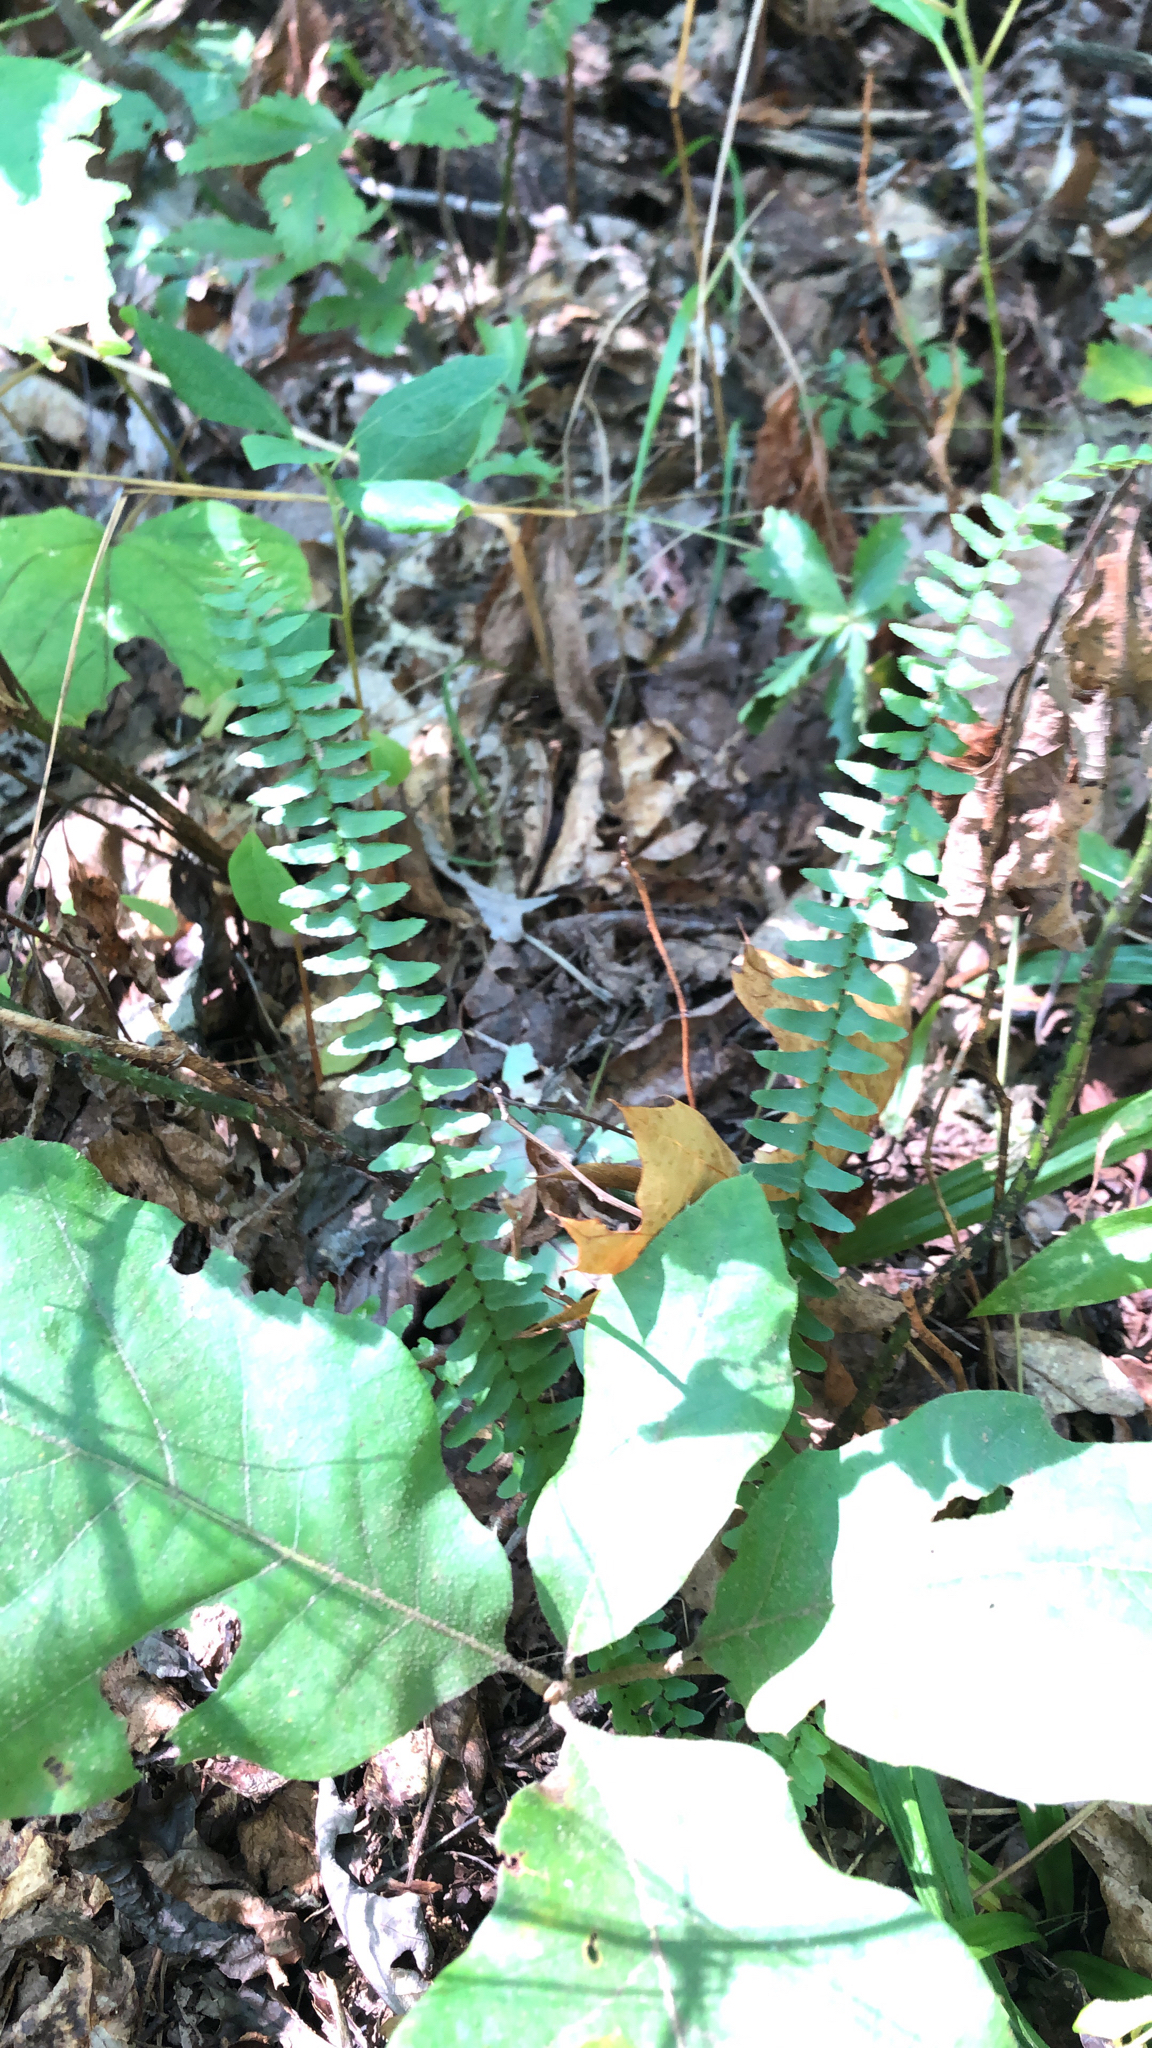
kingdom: Plantae
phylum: Tracheophyta
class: Polypodiopsida
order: Polypodiales
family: Aspleniaceae
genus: Asplenium
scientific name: Asplenium platyneuron
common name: Ebony spleenwort
